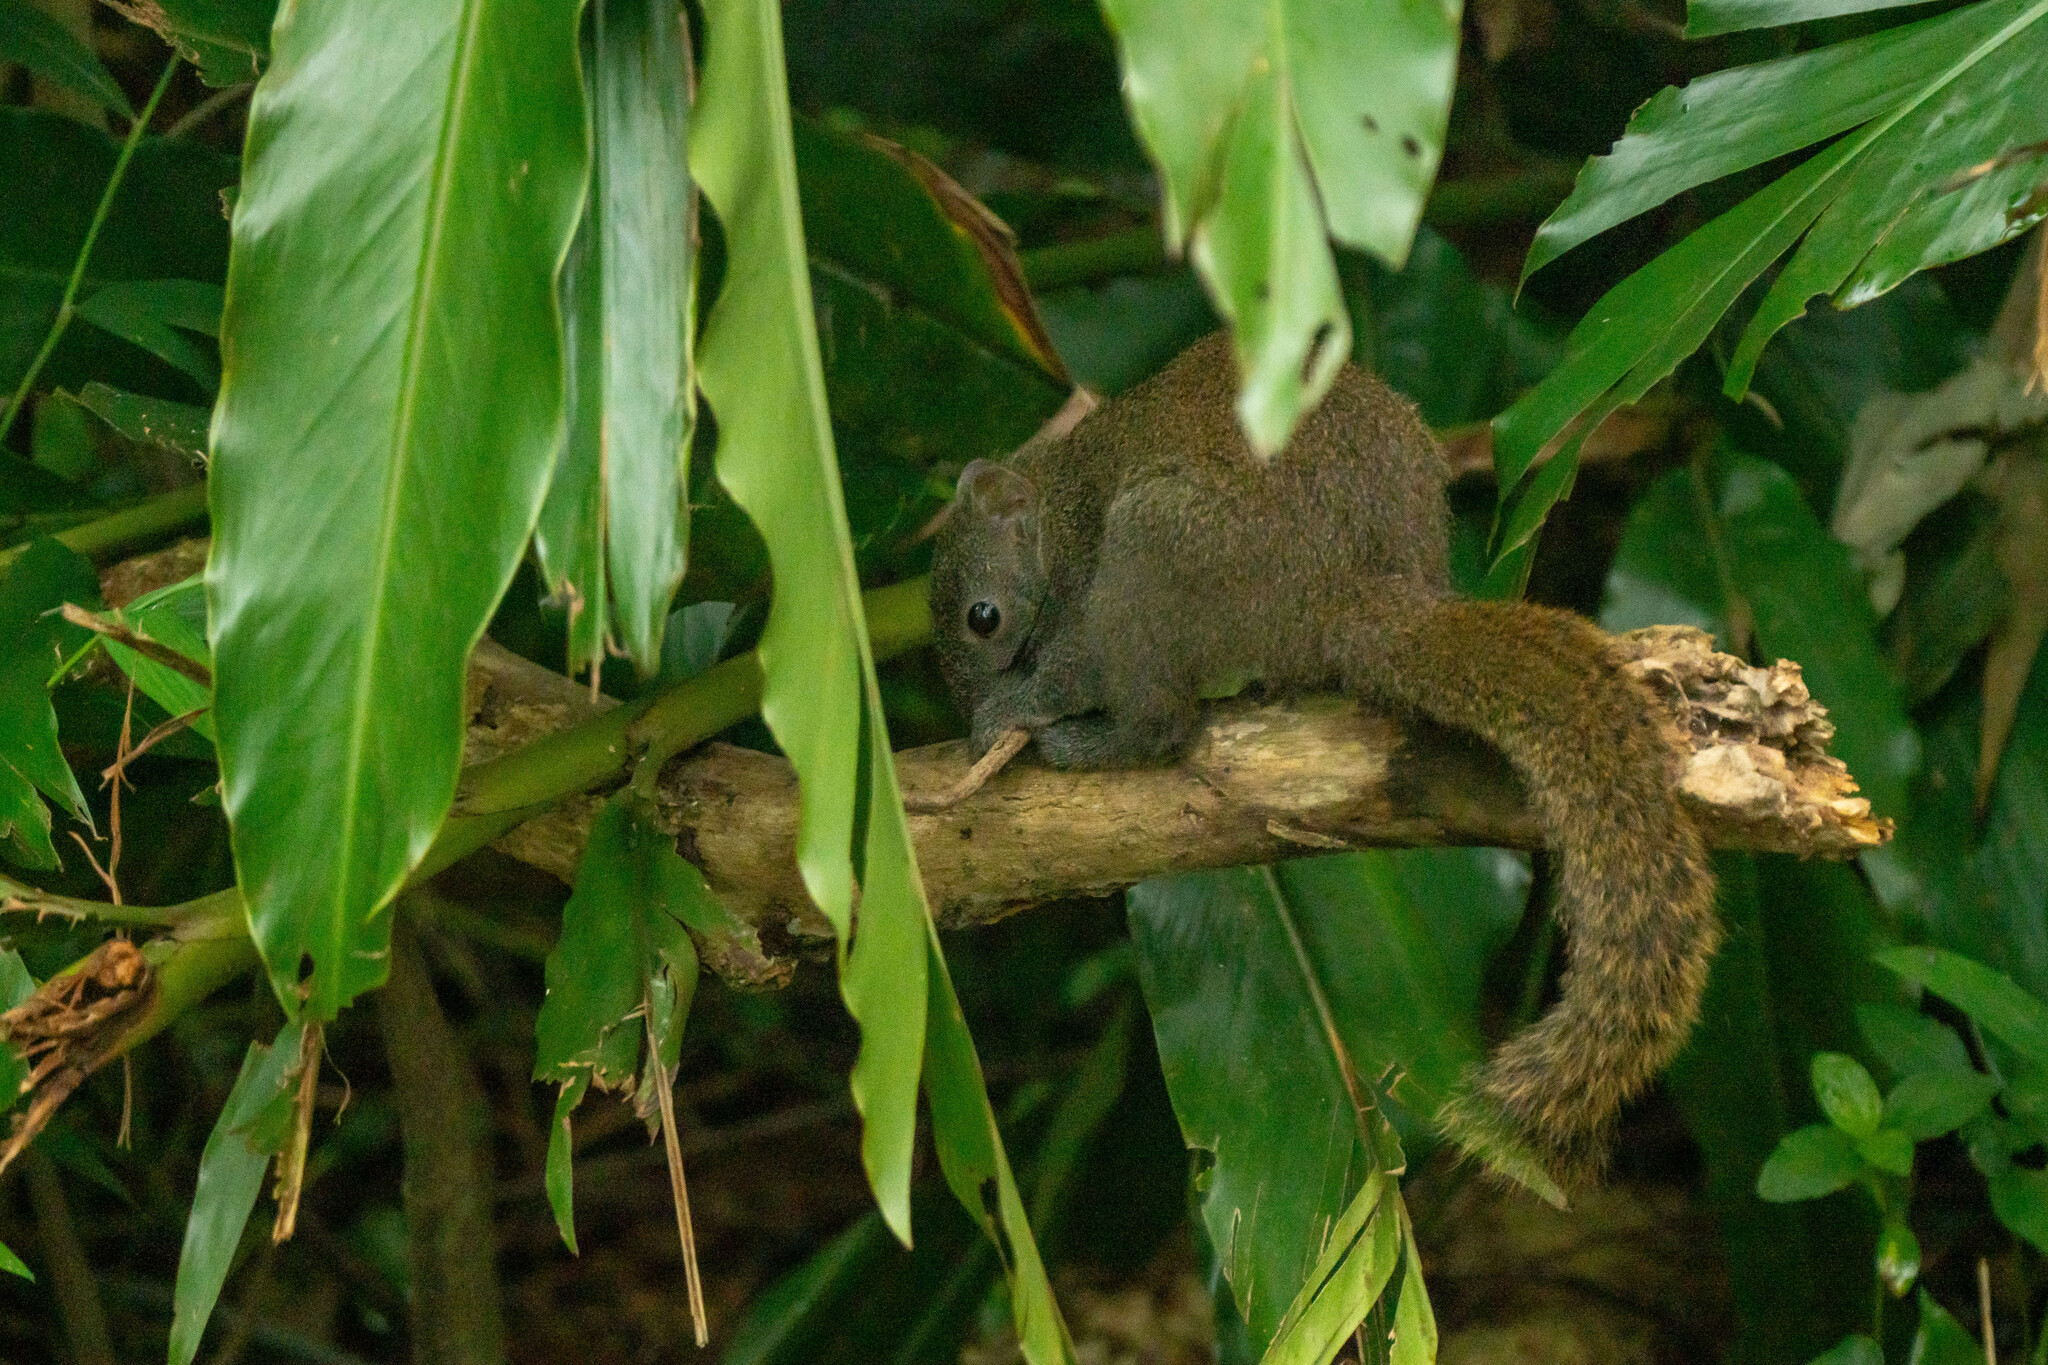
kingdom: Animalia
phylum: Chordata
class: Mammalia
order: Rodentia
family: Sciuridae
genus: Callosciurus
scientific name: Callosciurus erythraeus
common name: Pallas's squirrel
